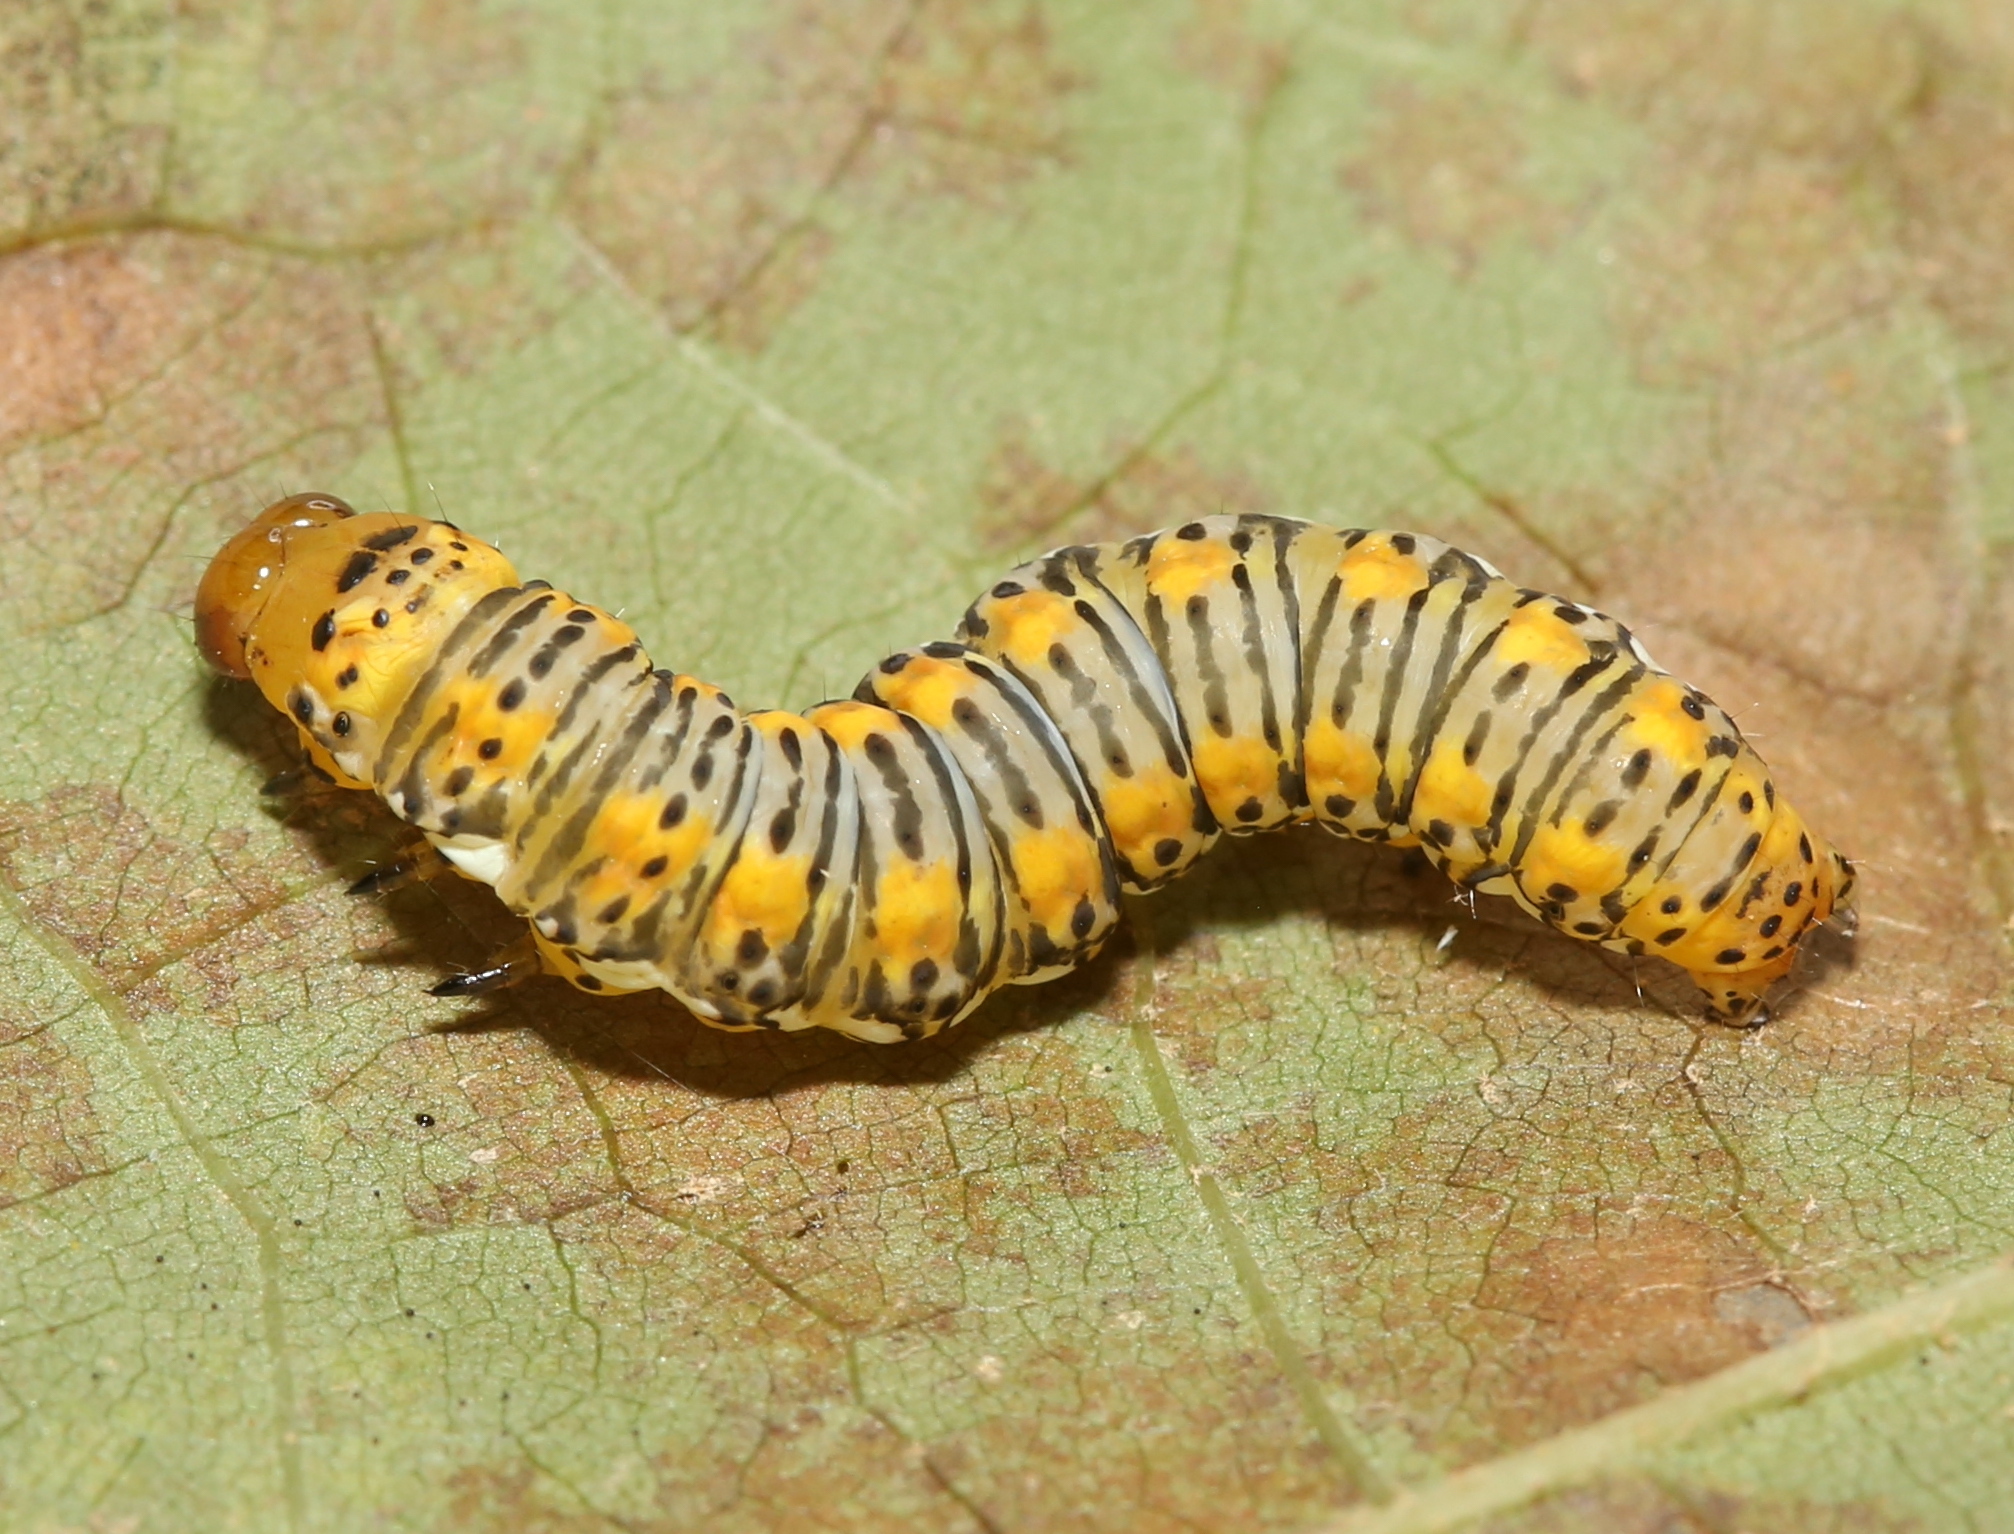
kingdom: Animalia
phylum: Arthropoda
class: Insecta
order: Lepidoptera
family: Noctuidae
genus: Basilodes
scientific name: Basilodes pepita
